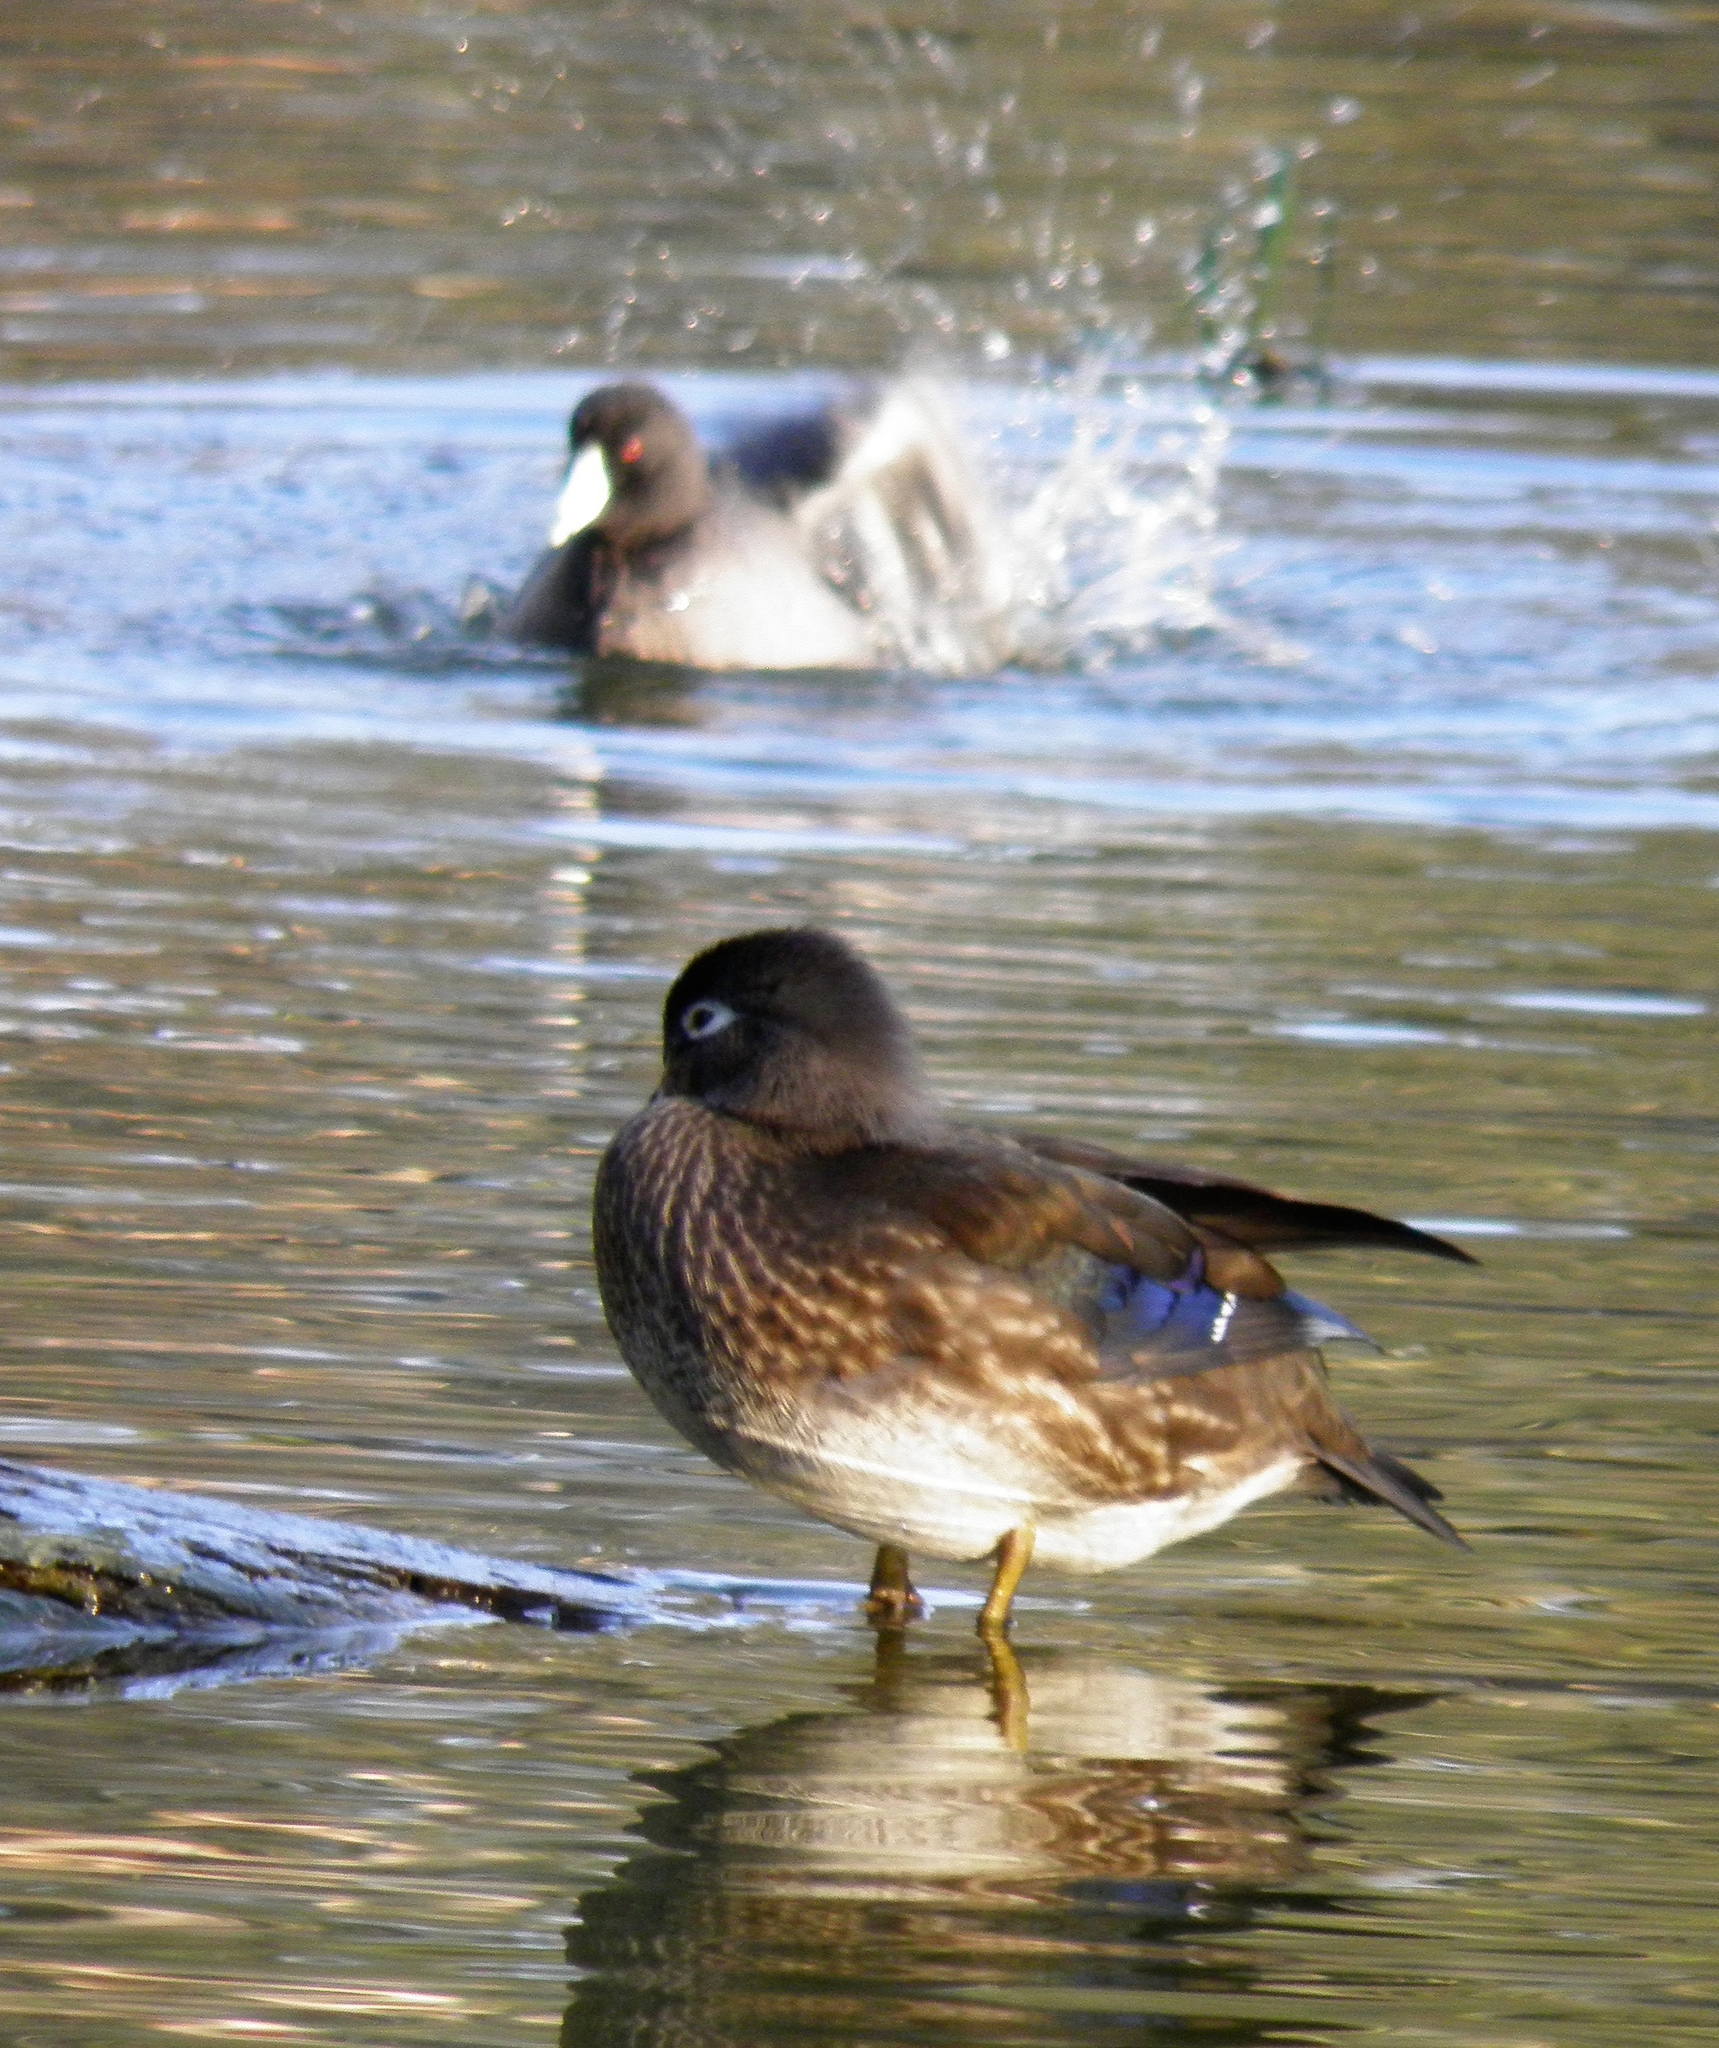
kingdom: Animalia
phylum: Chordata
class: Aves
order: Anseriformes
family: Anatidae
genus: Aix
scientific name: Aix sponsa
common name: Wood duck
